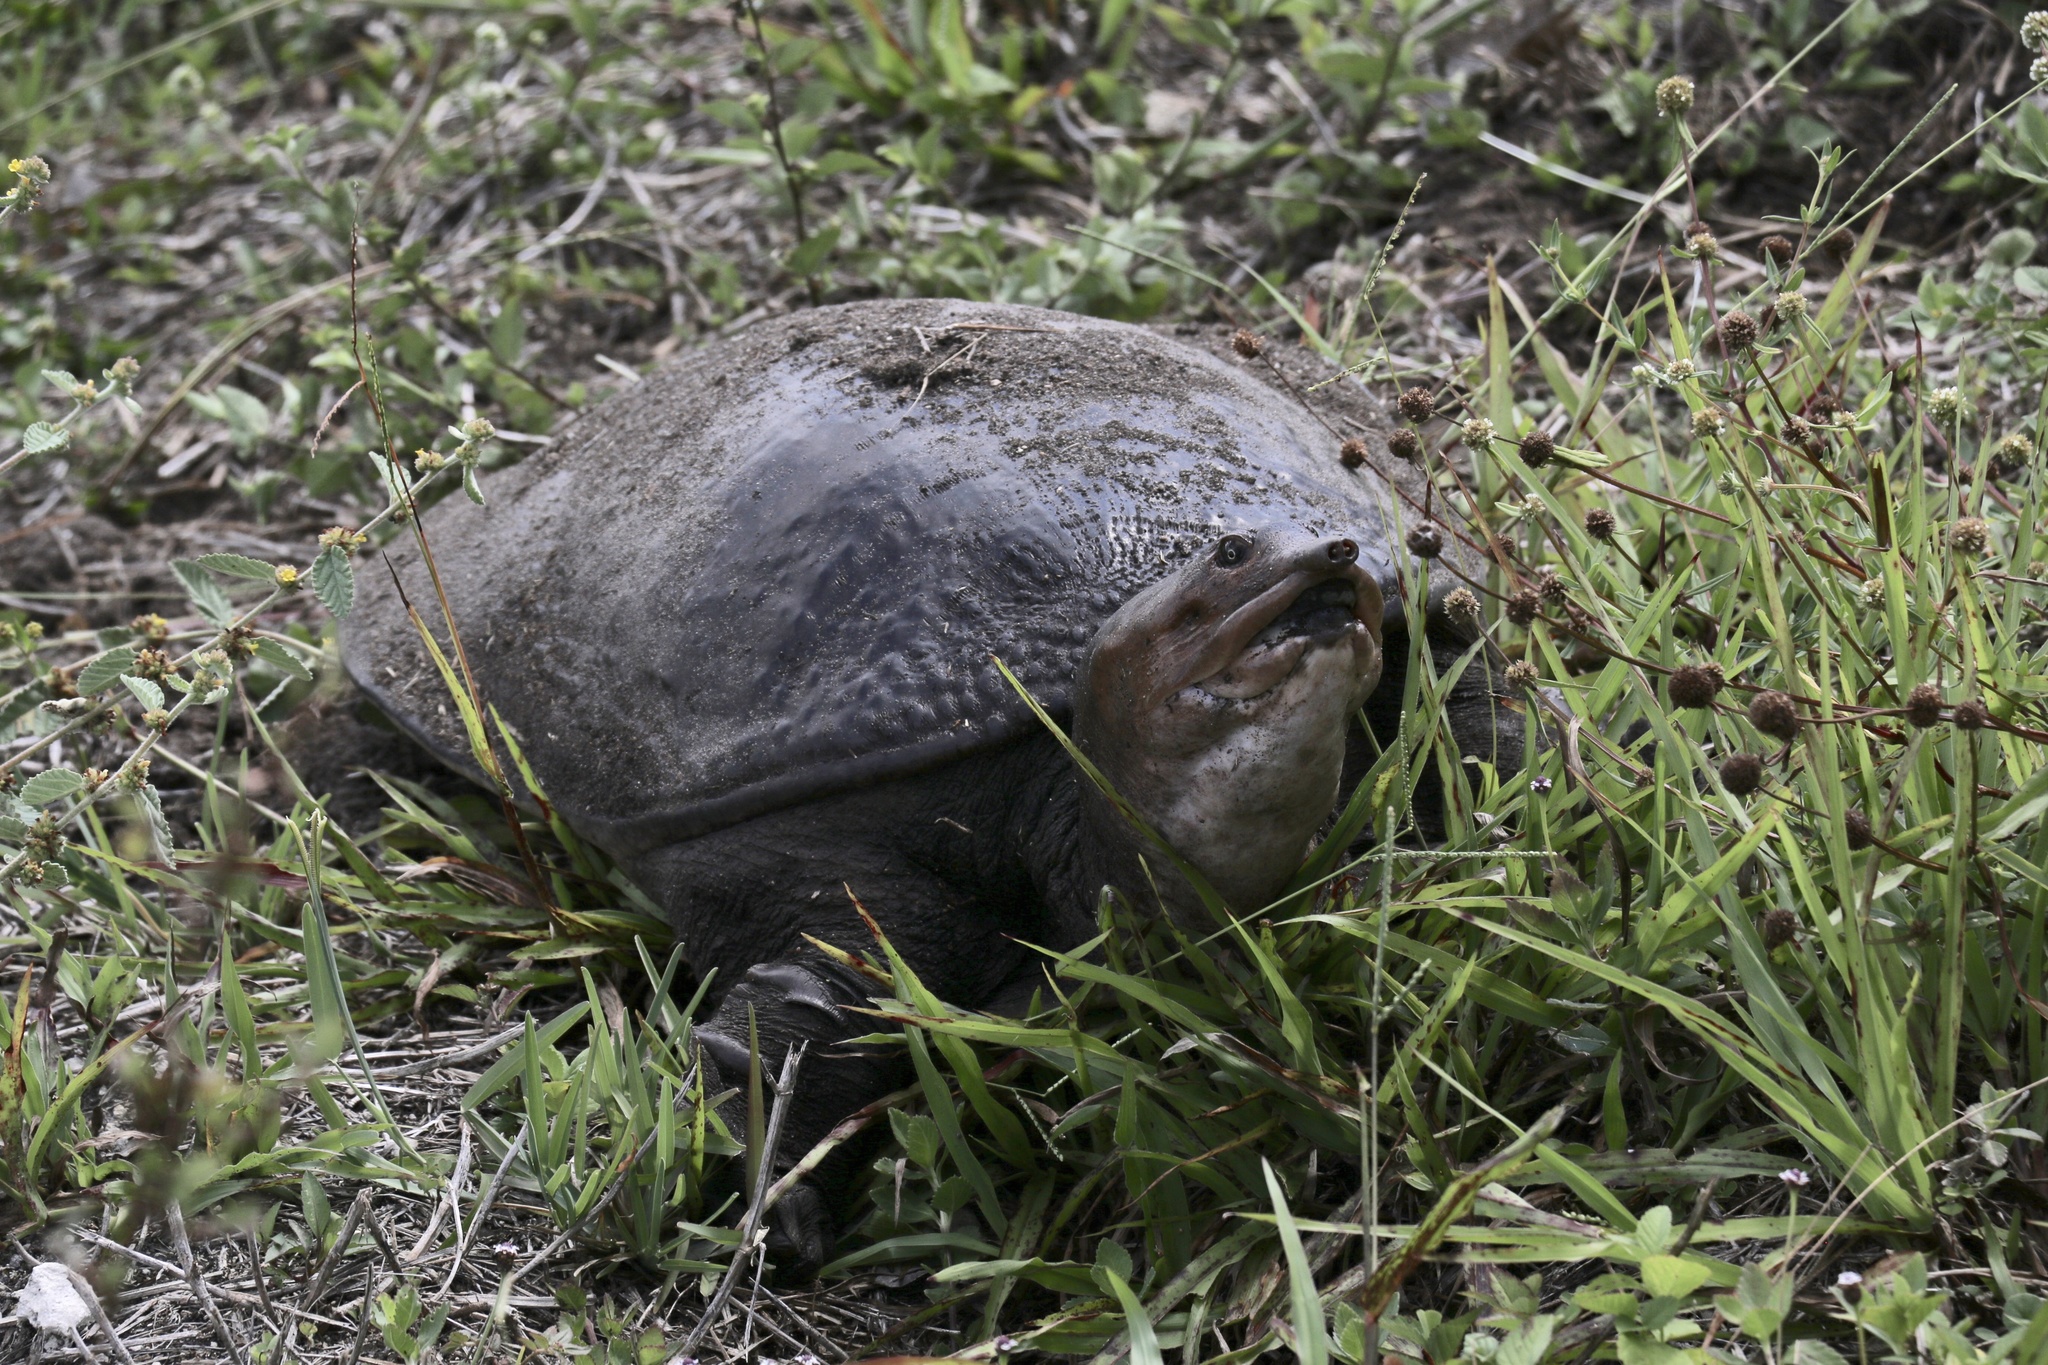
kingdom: Animalia
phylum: Chordata
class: Testudines
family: Trionychidae
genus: Apalone
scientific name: Apalone ferox
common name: Florida softshell turtle
